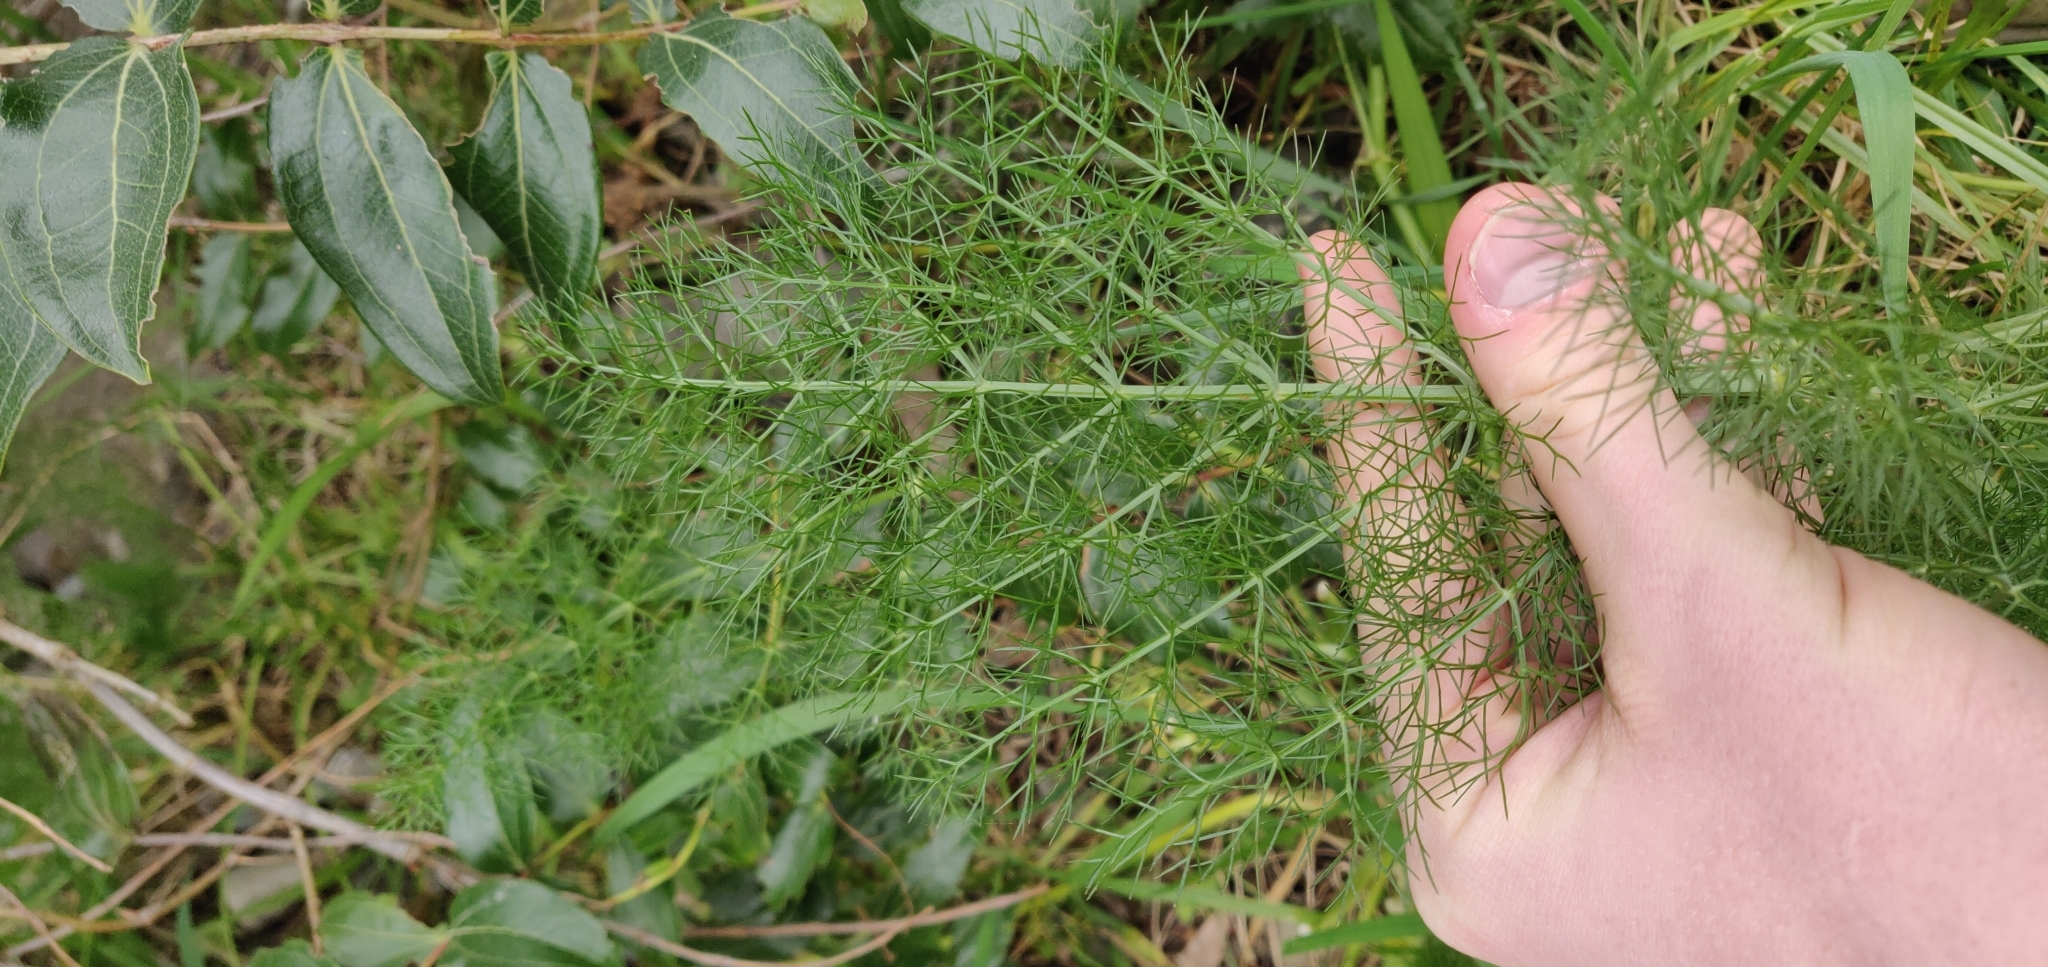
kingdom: Plantae
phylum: Tracheophyta
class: Magnoliopsida
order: Apiales
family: Apiaceae
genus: Foeniculum
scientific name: Foeniculum vulgare
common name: Fennel
